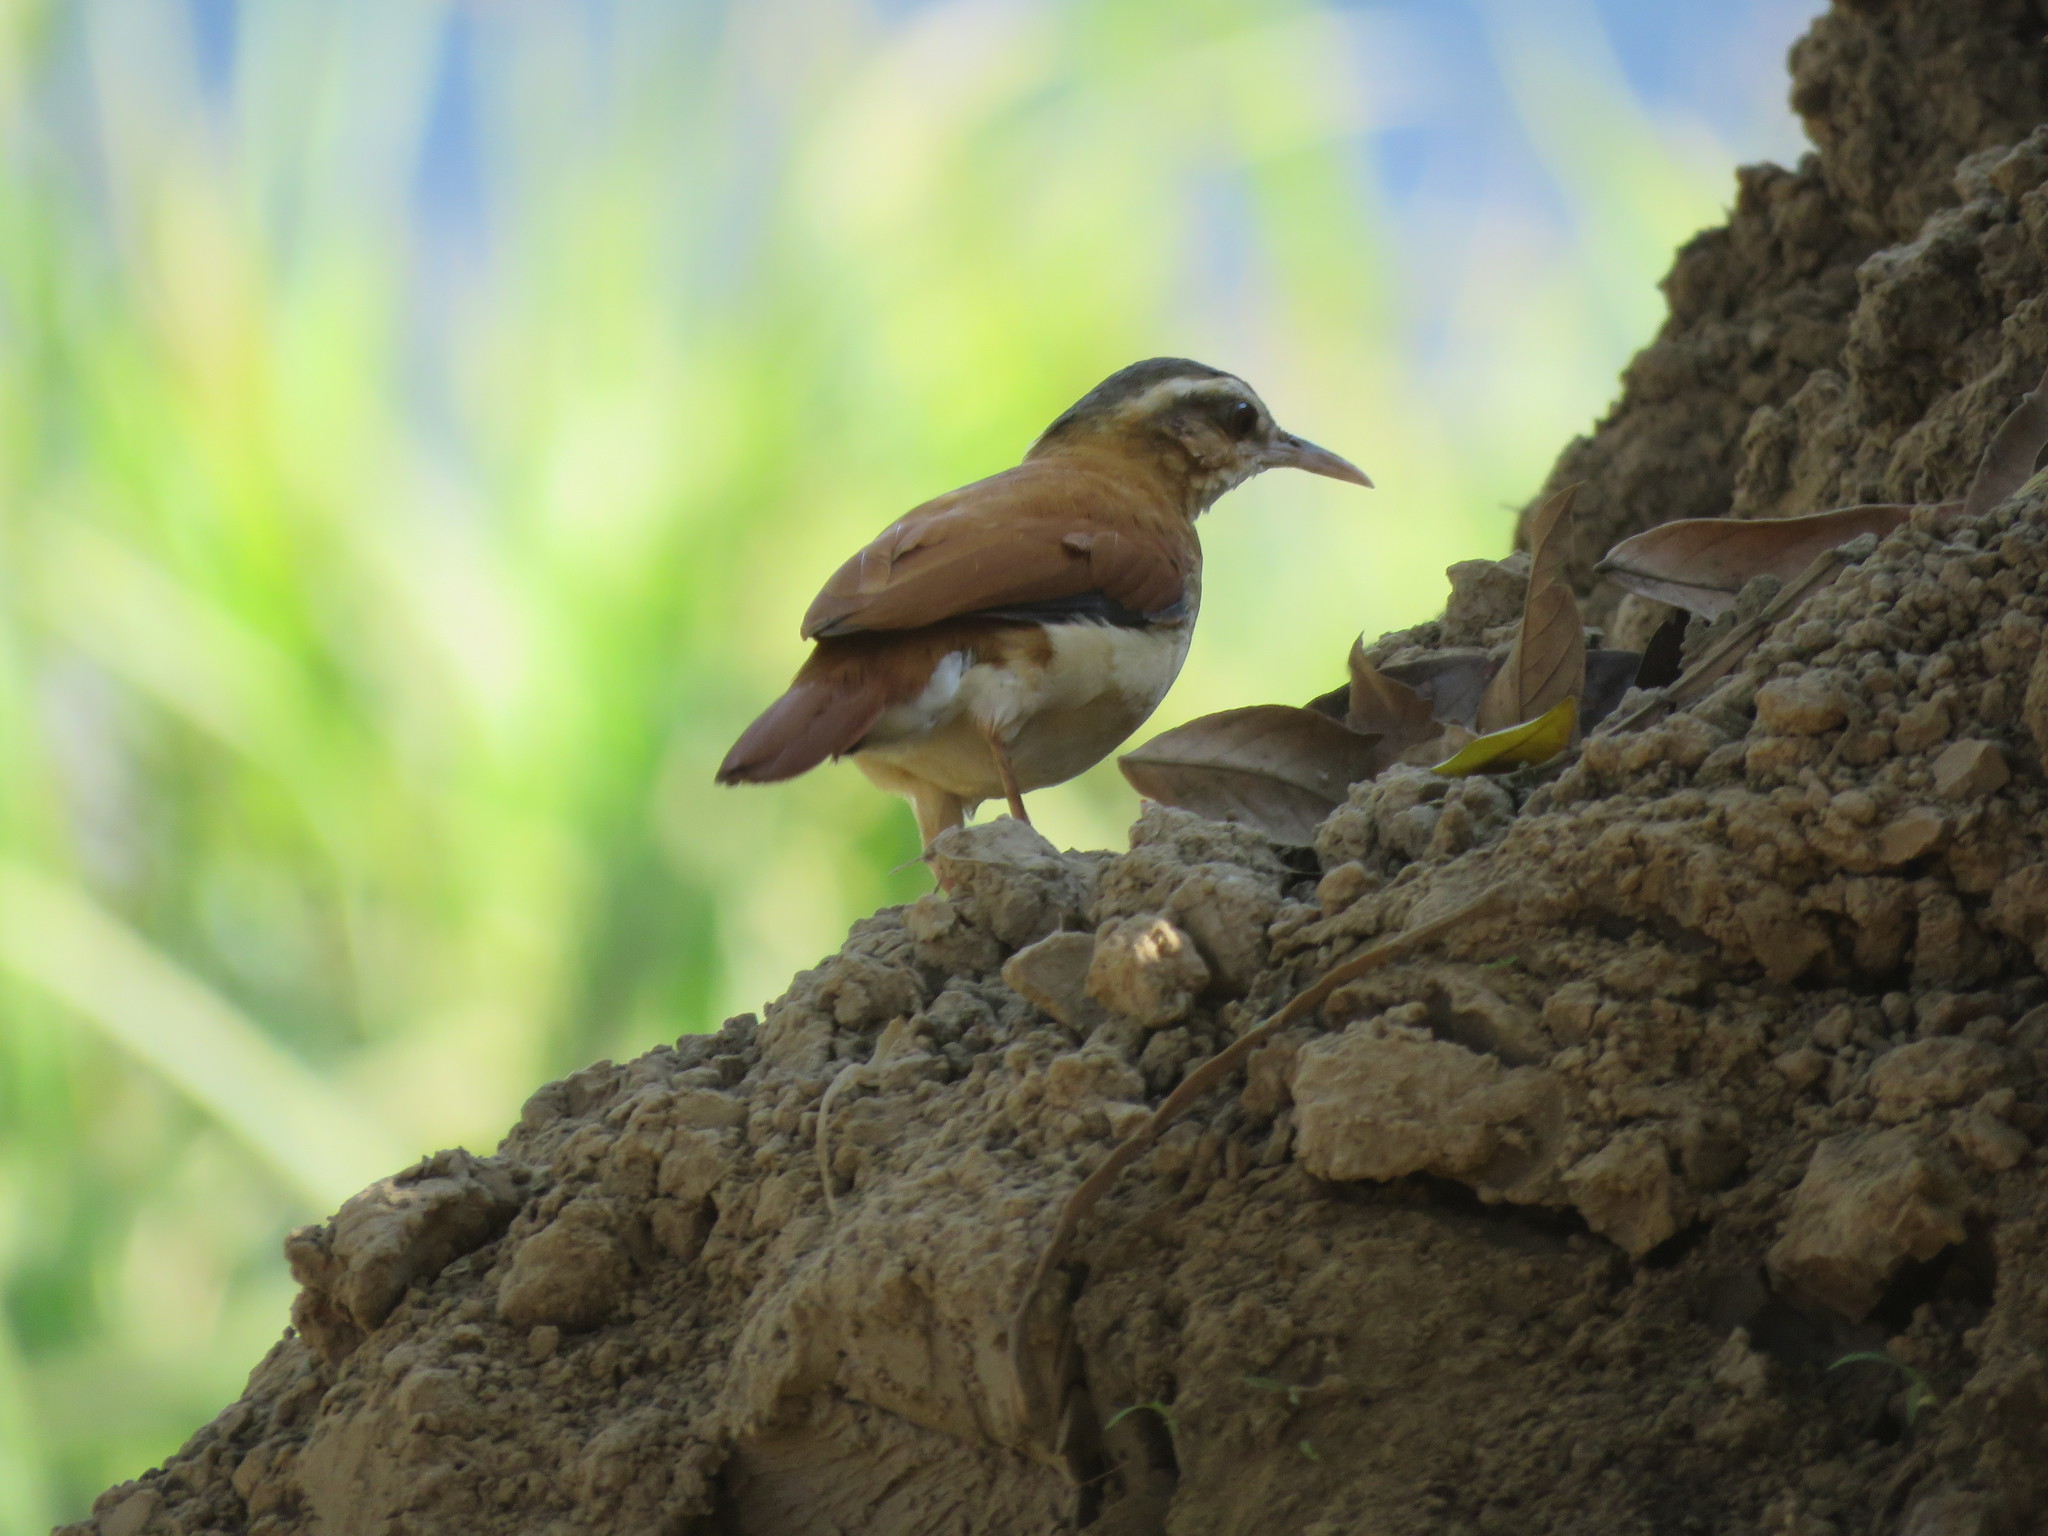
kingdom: Animalia
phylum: Chordata
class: Aves
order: Passeriformes
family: Furnariidae
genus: Furnarius
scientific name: Furnarius leucopus
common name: Pale-legged hornero
